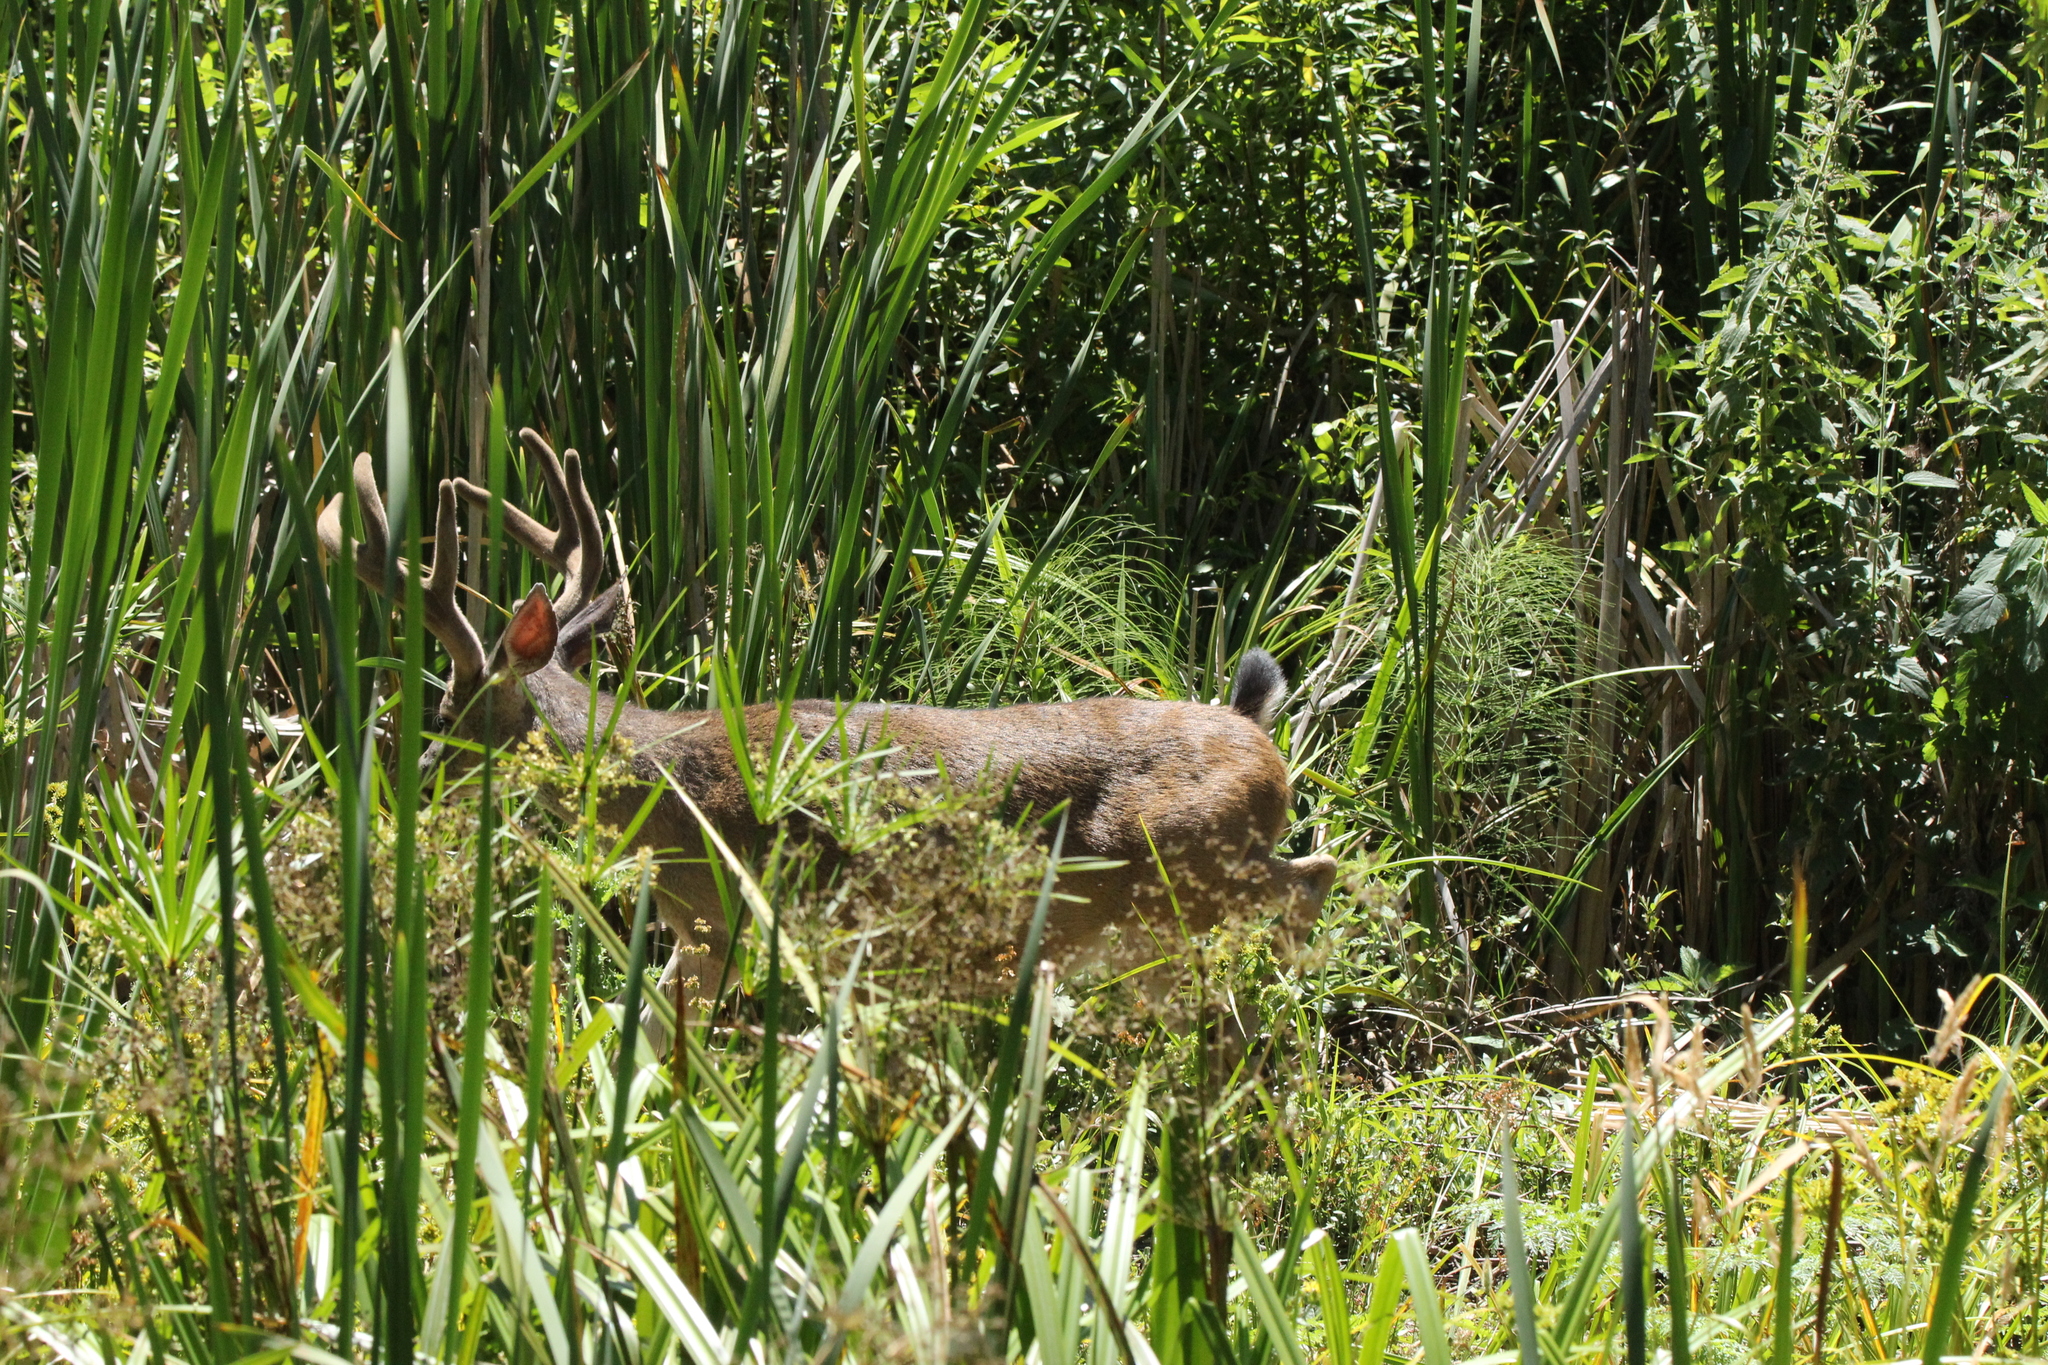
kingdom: Animalia
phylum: Chordata
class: Mammalia
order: Artiodactyla
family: Cervidae
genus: Odocoileus
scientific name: Odocoileus hemionus
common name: Mule deer
